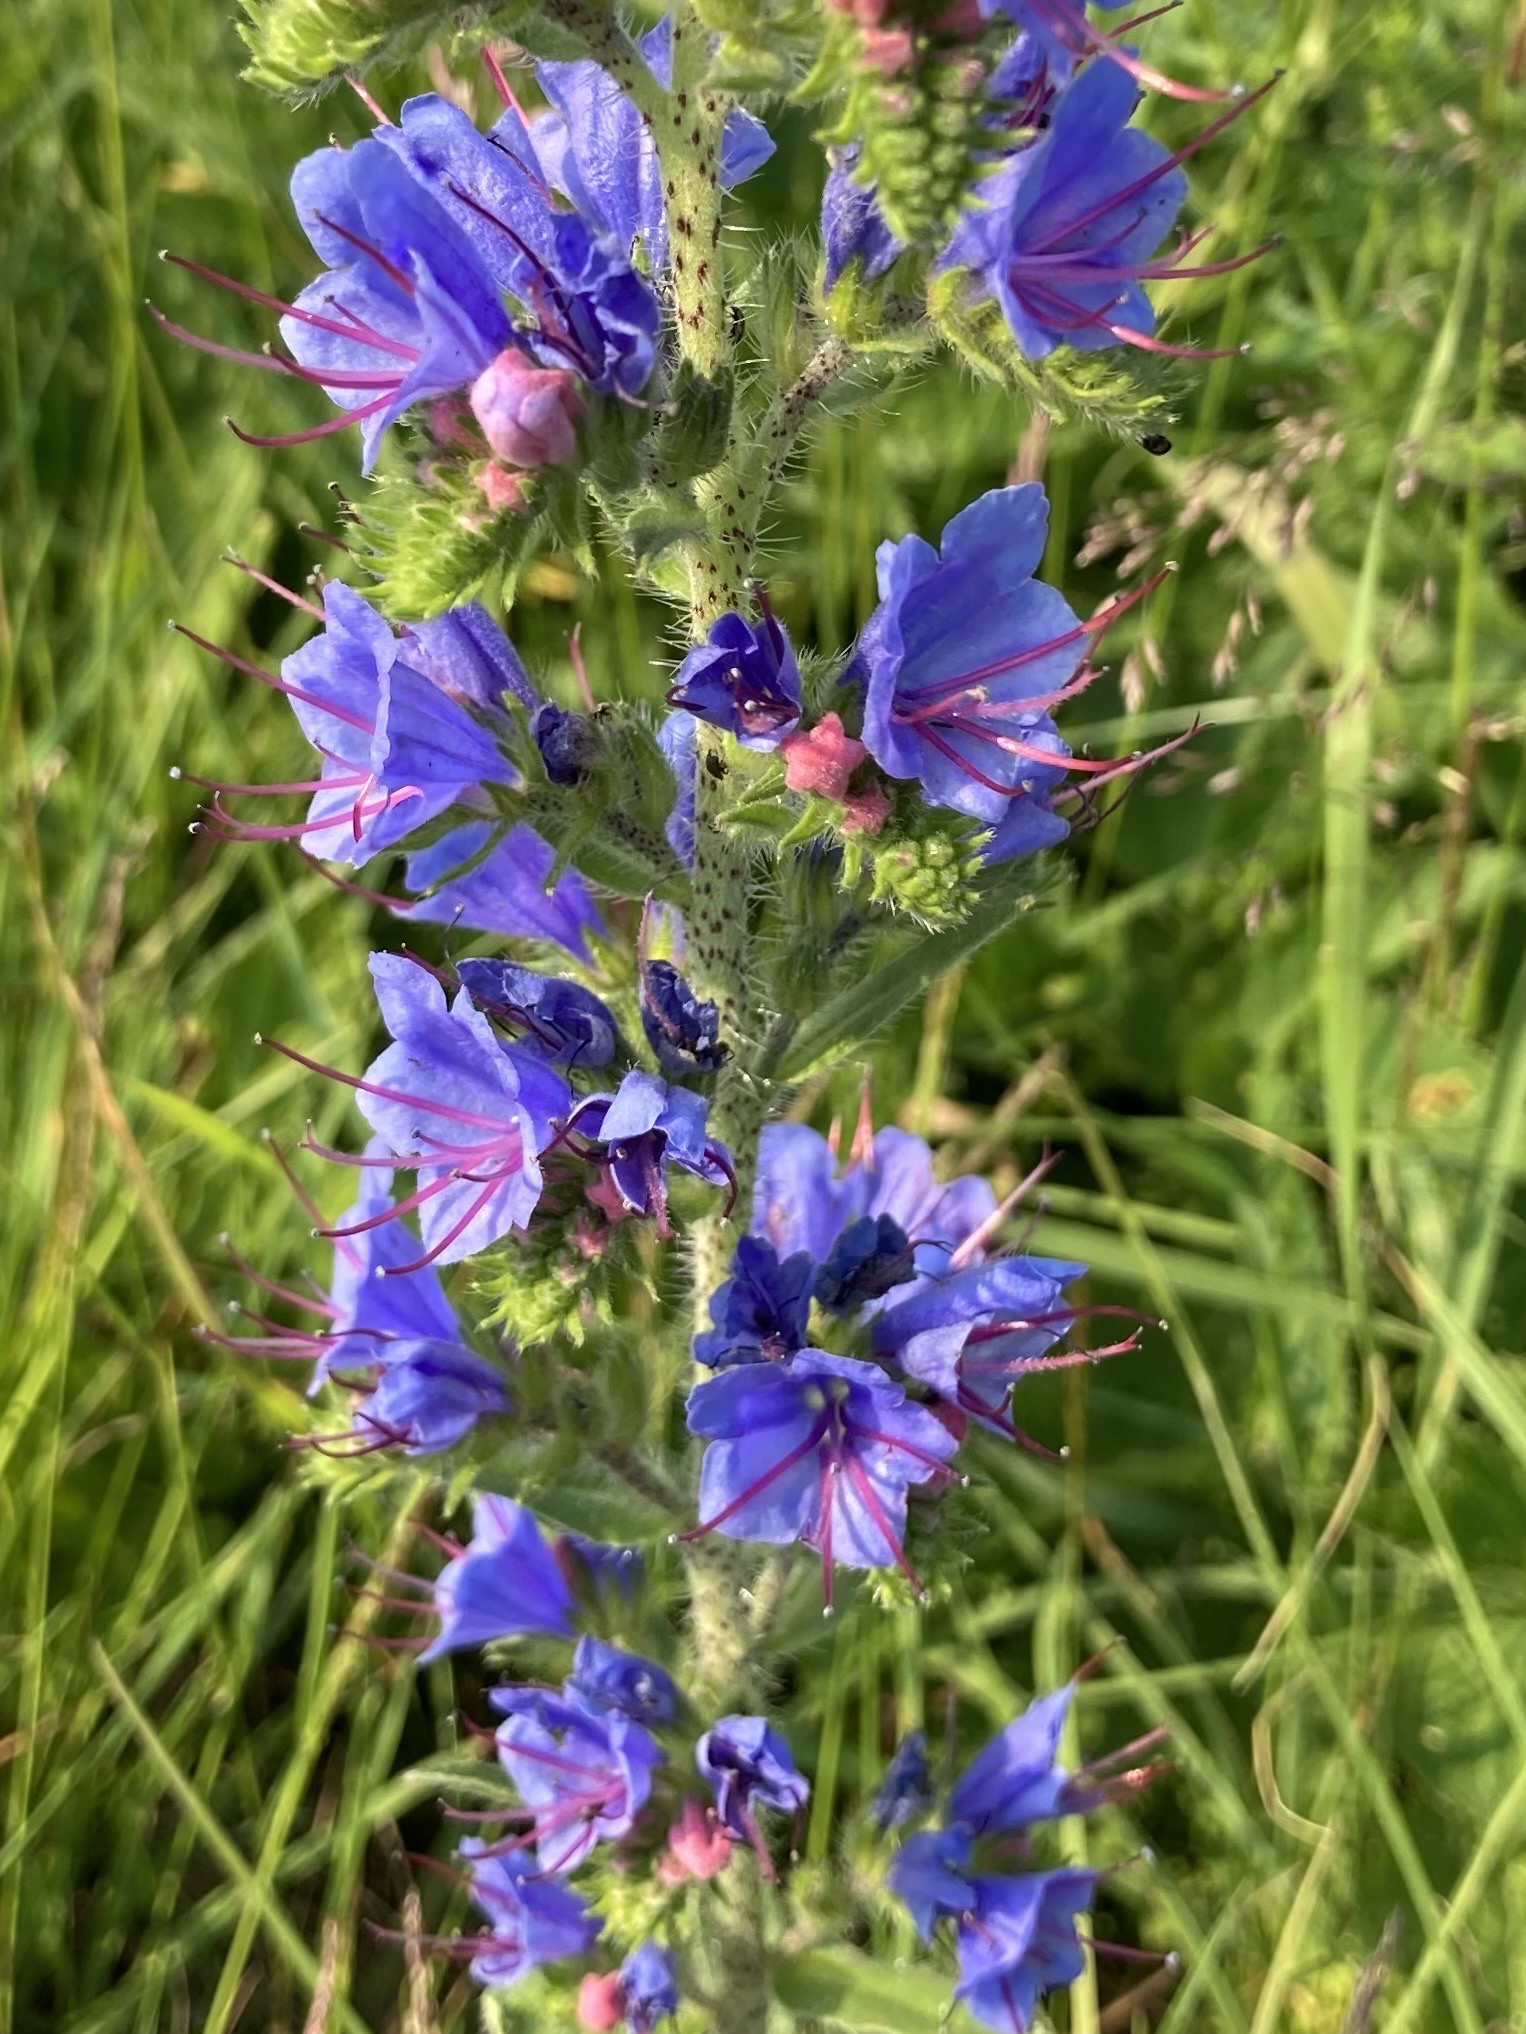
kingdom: Plantae
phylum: Tracheophyta
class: Magnoliopsida
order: Boraginales
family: Boraginaceae
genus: Echium
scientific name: Echium vulgare
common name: Common viper's bugloss
